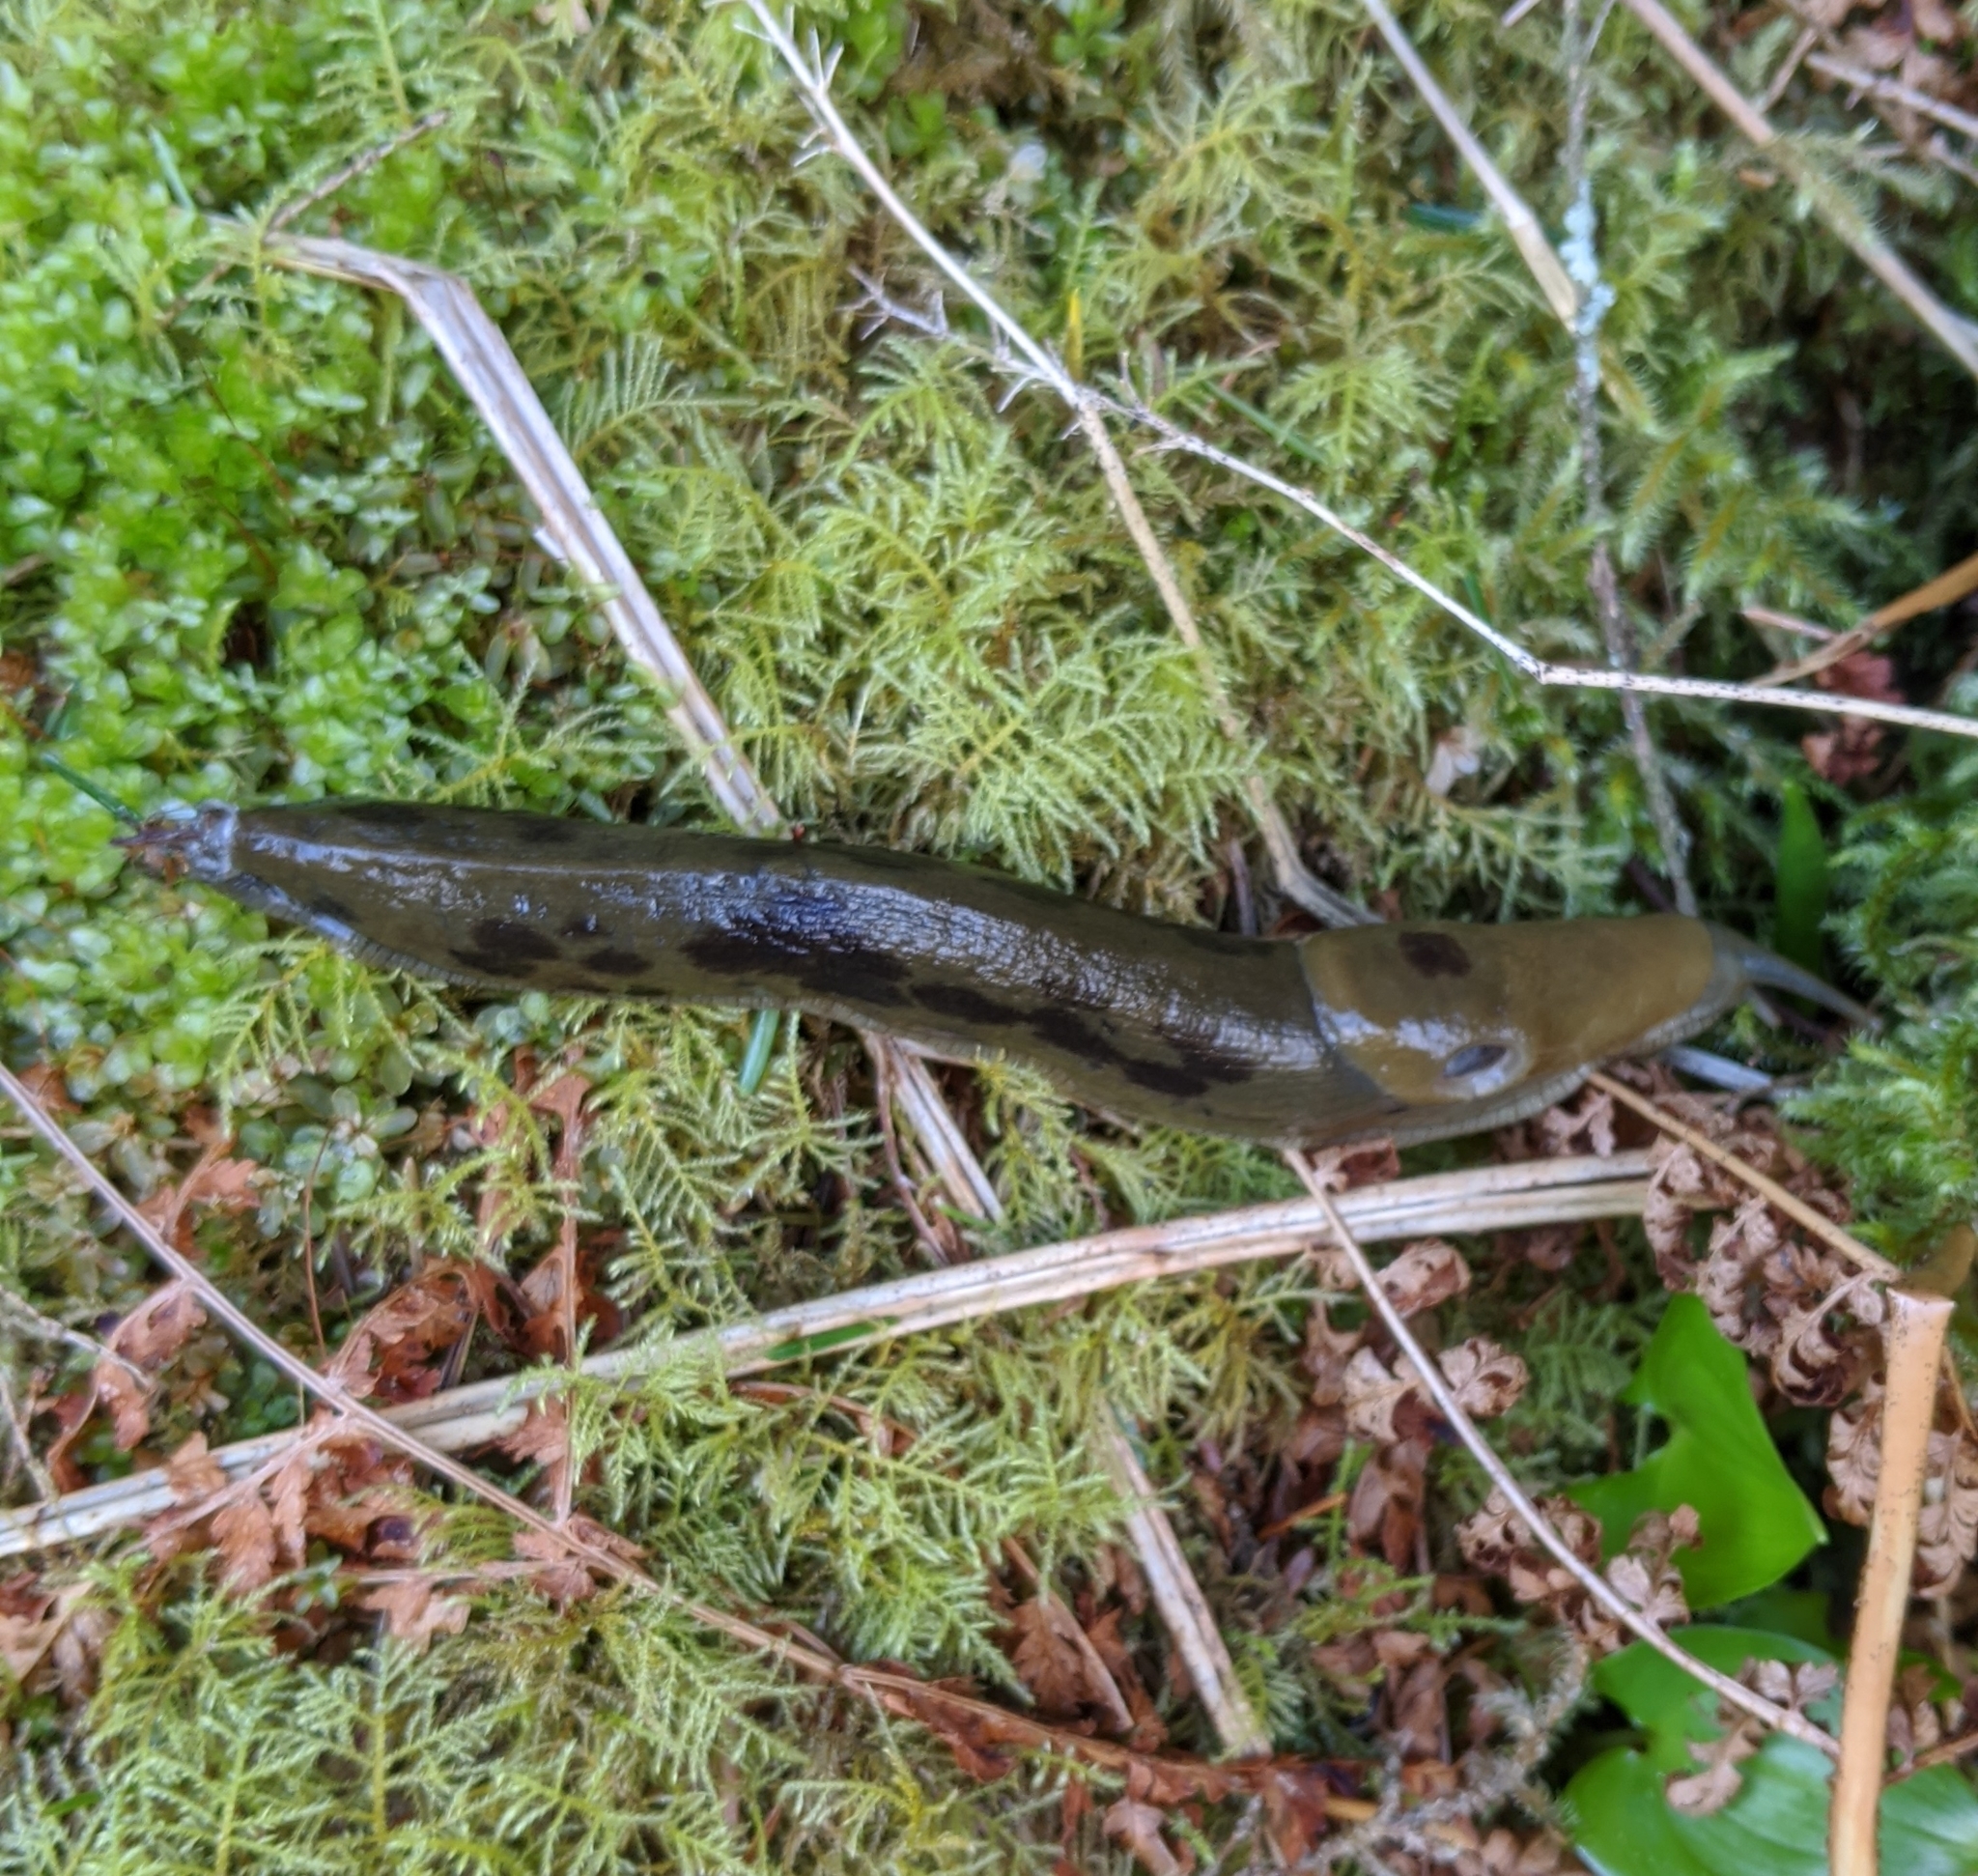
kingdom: Animalia
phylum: Mollusca
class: Gastropoda
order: Stylommatophora
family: Ariolimacidae
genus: Ariolimax
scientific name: Ariolimax columbianus
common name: Pacific banana slug
